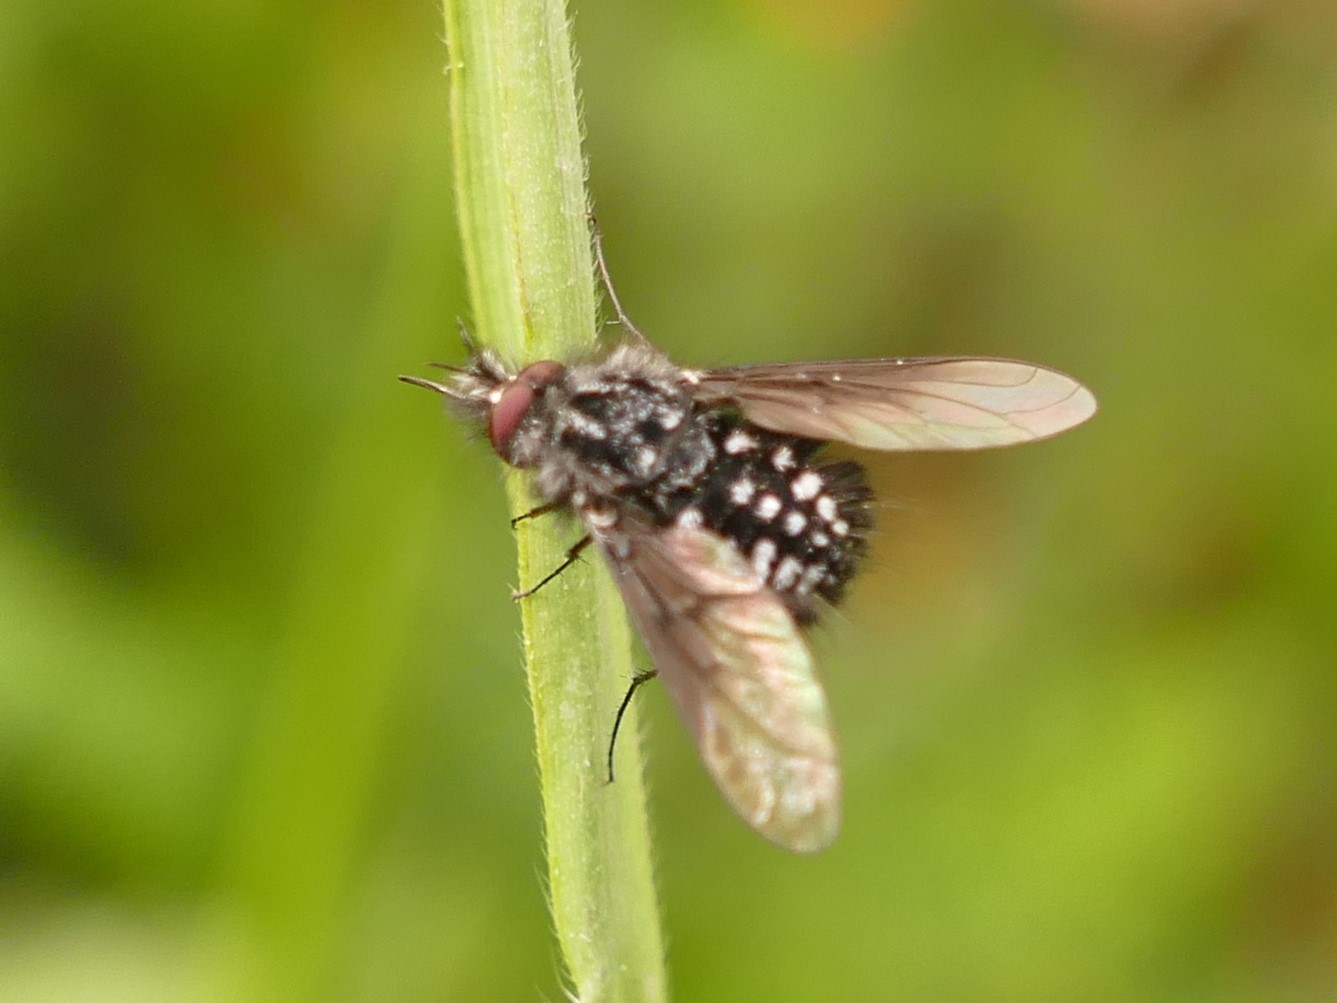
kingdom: Animalia
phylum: Arthropoda
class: Insecta
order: Diptera
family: Bombyliidae
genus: Bombylella
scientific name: Bombylella atra
